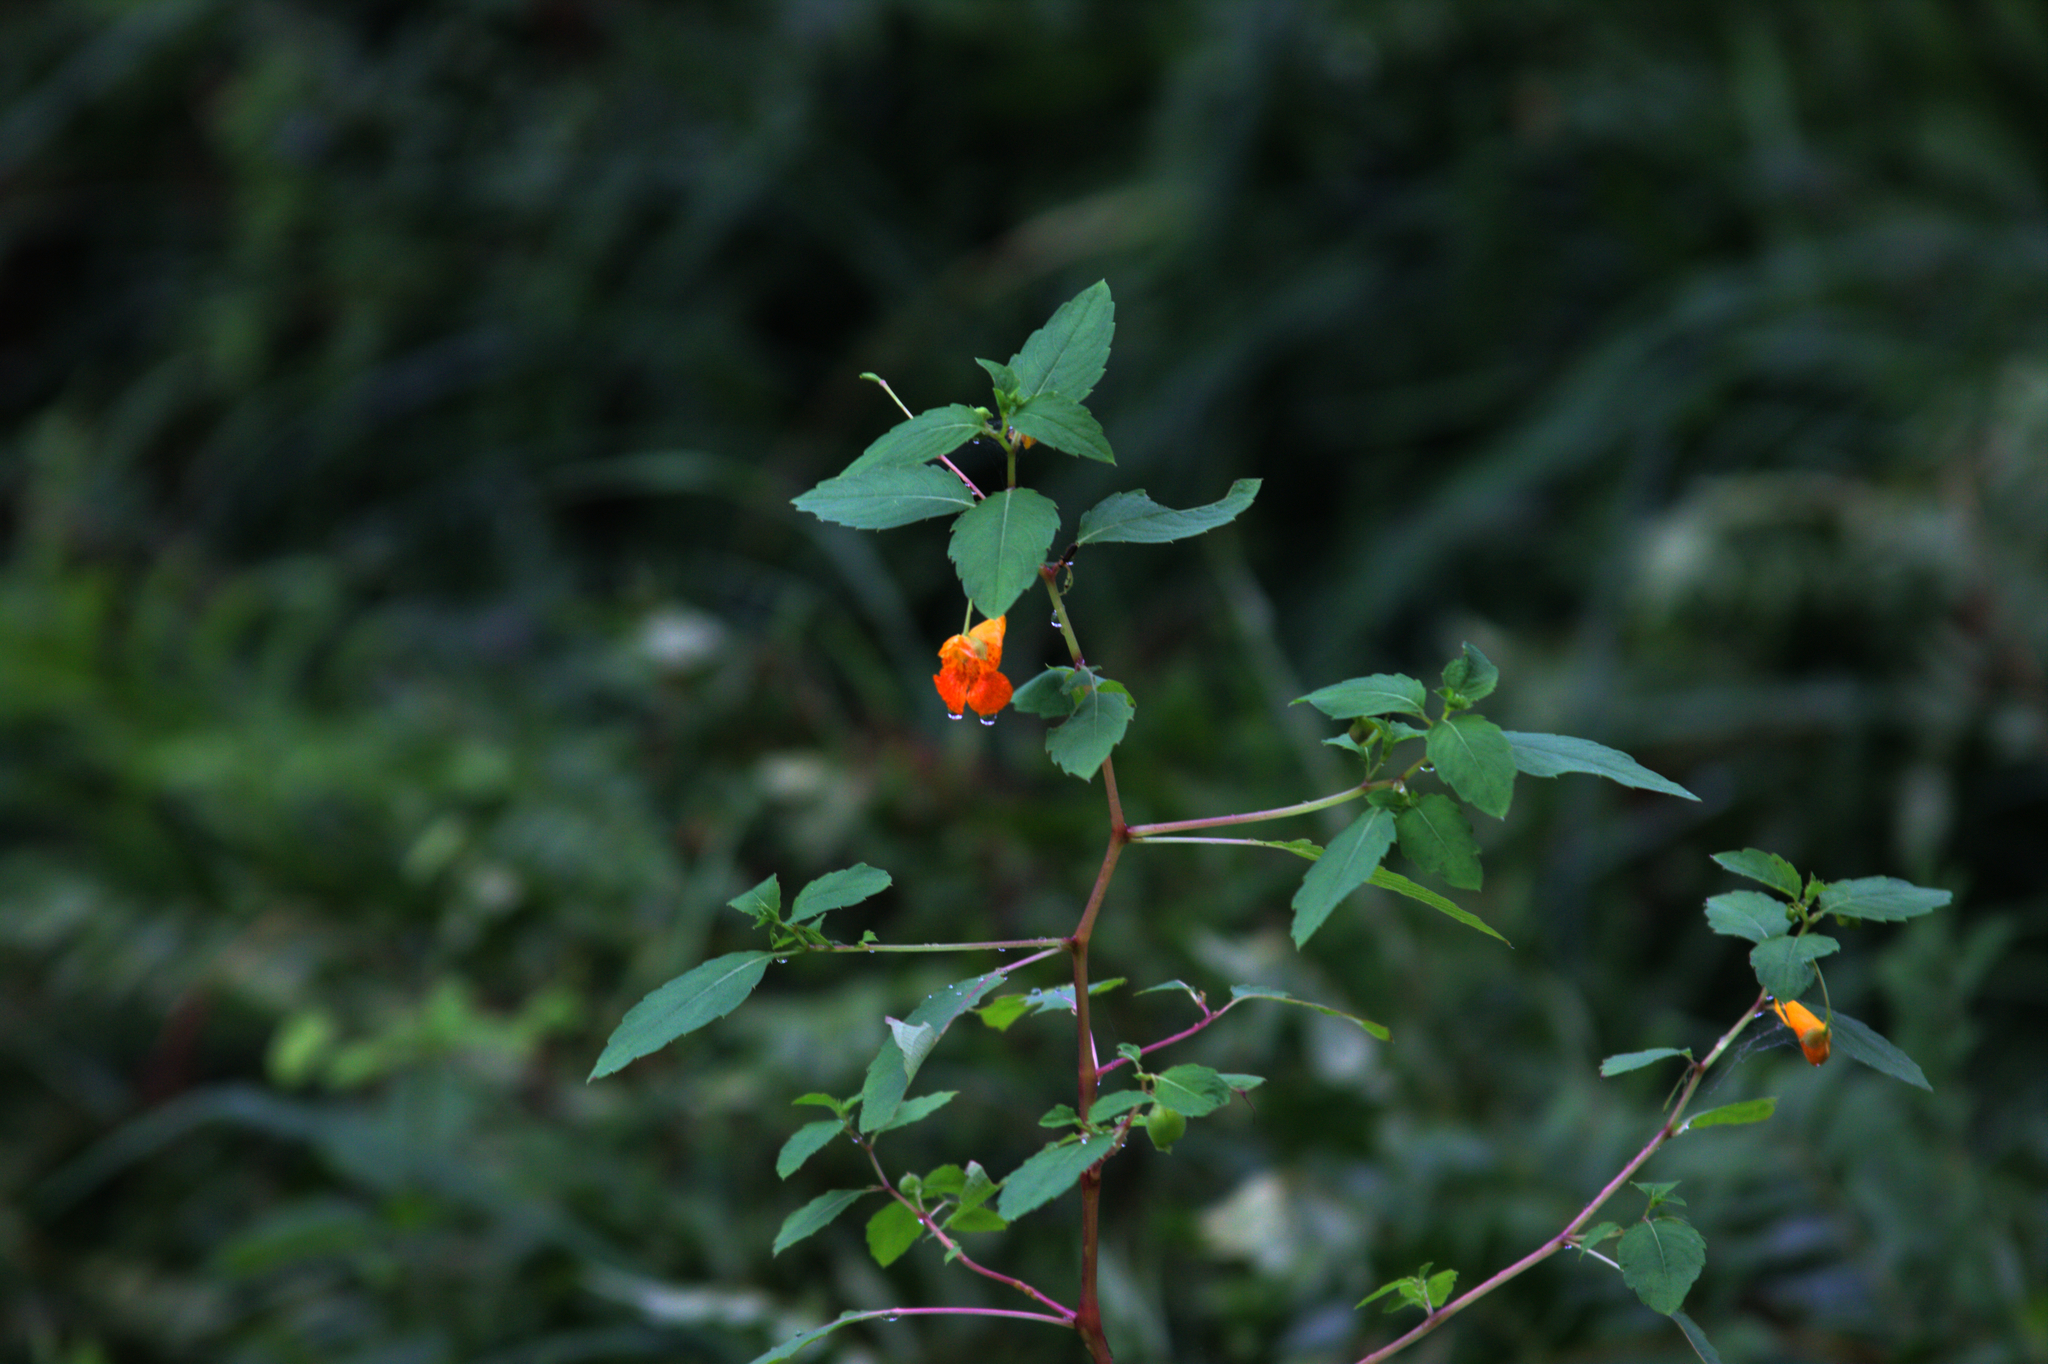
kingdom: Plantae
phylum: Tracheophyta
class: Magnoliopsida
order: Ericales
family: Balsaminaceae
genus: Impatiens
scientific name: Impatiens capensis
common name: Orange balsam
